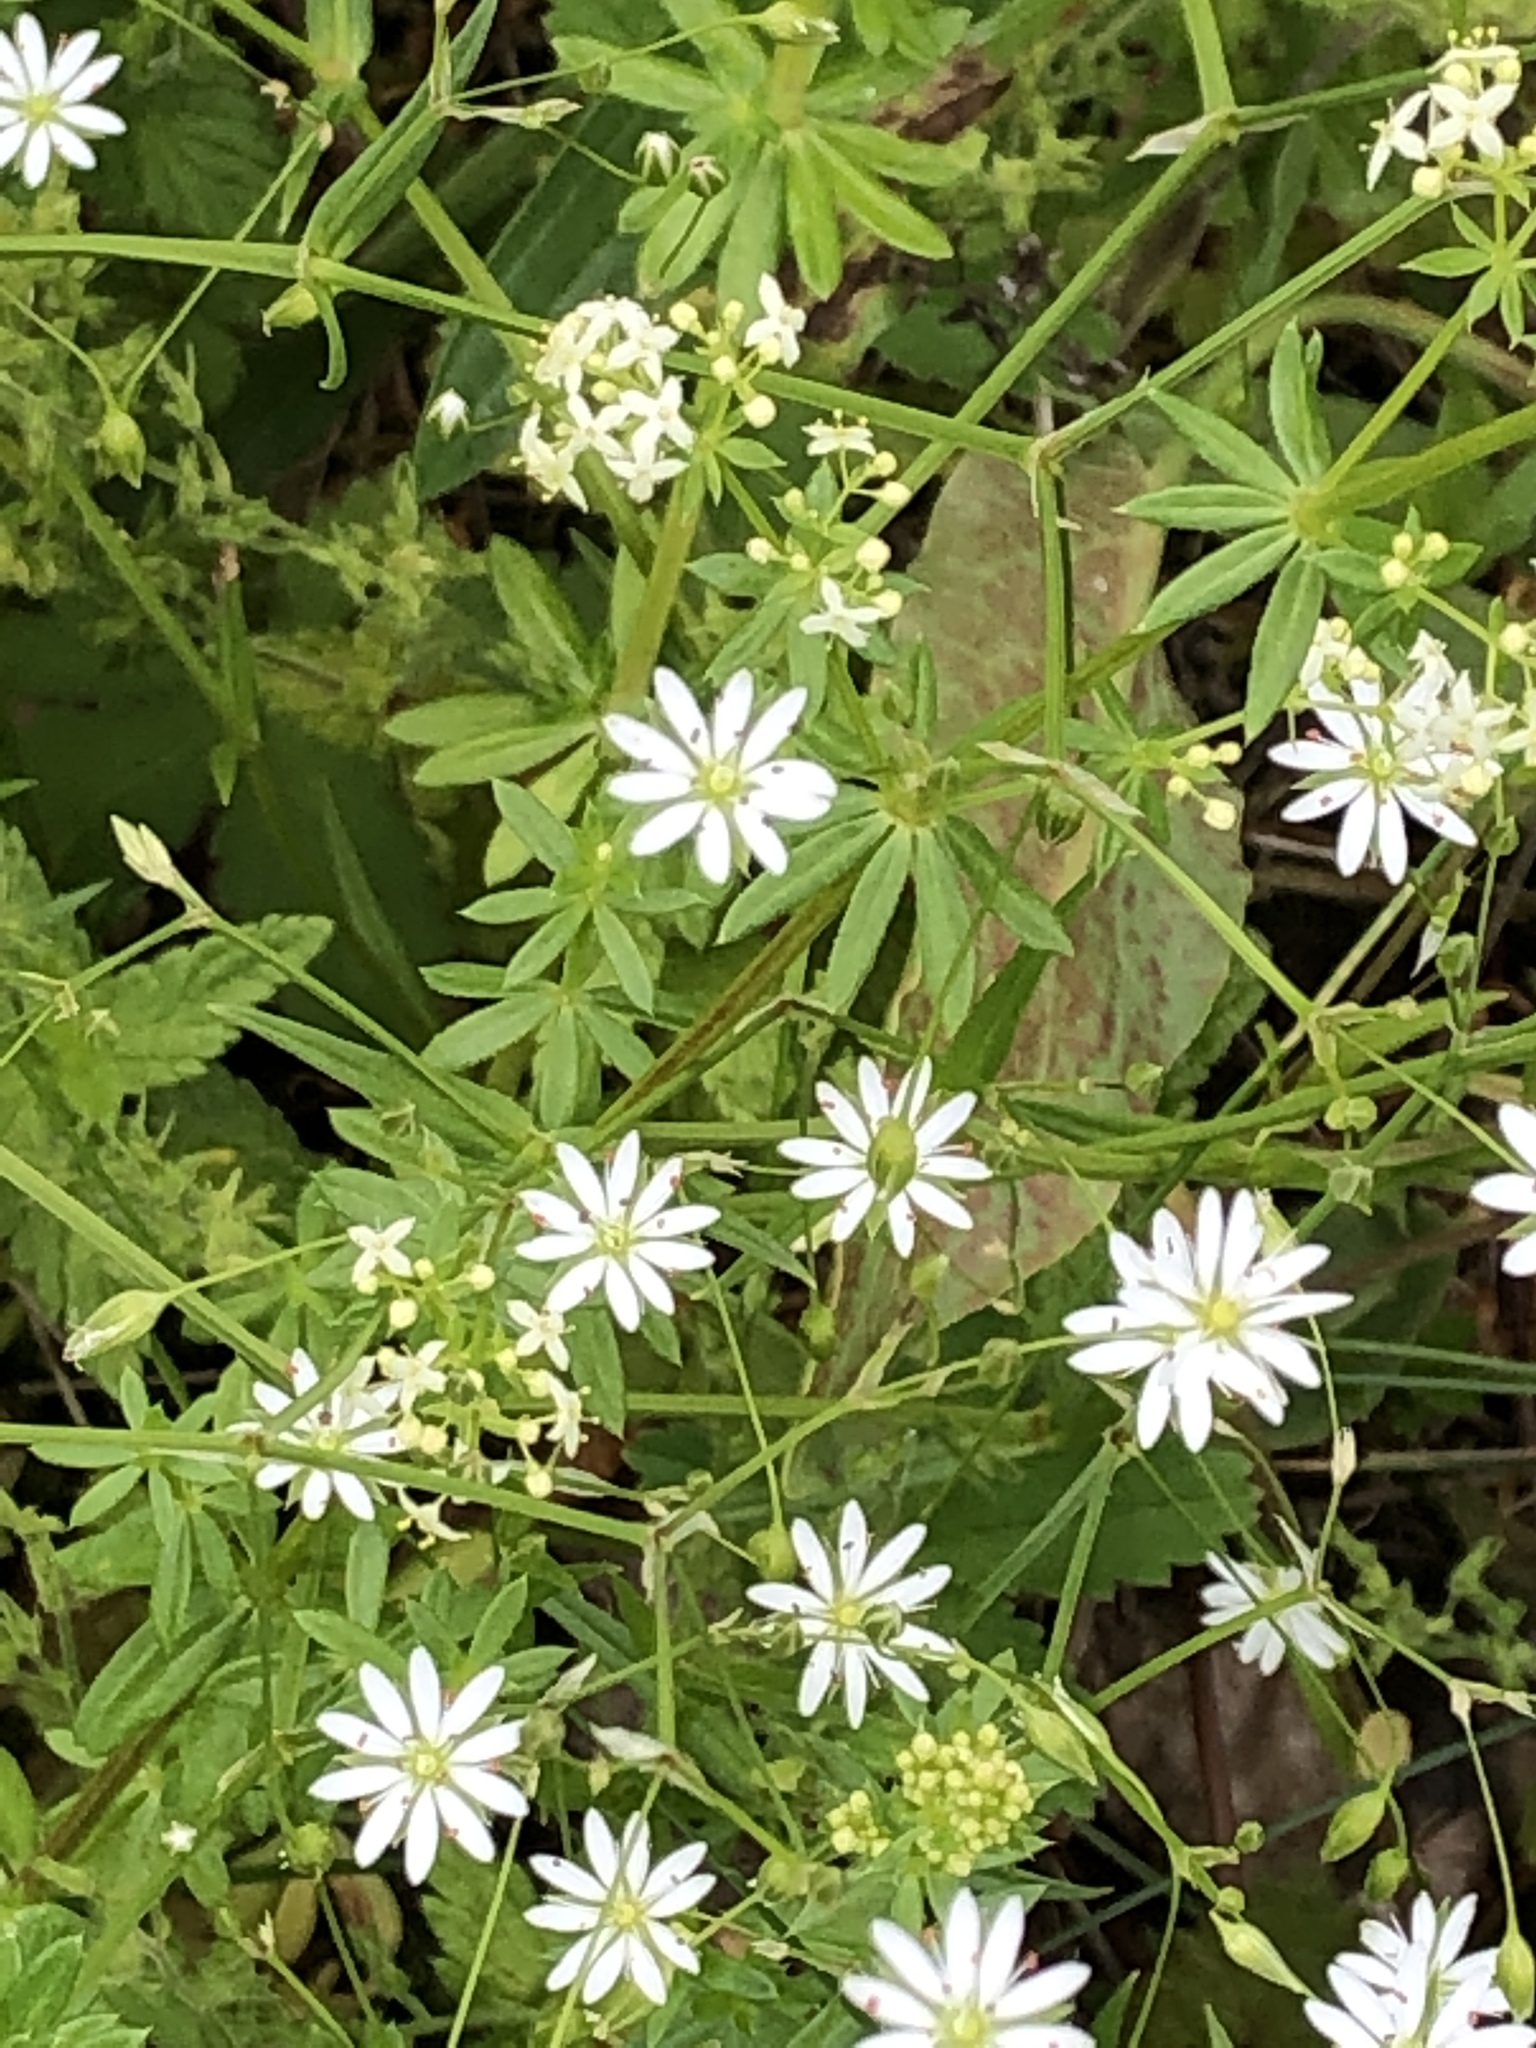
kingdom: Plantae
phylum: Tracheophyta
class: Magnoliopsida
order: Caryophyllales
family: Caryophyllaceae
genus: Stellaria
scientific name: Stellaria graminea
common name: Grass-like starwort
